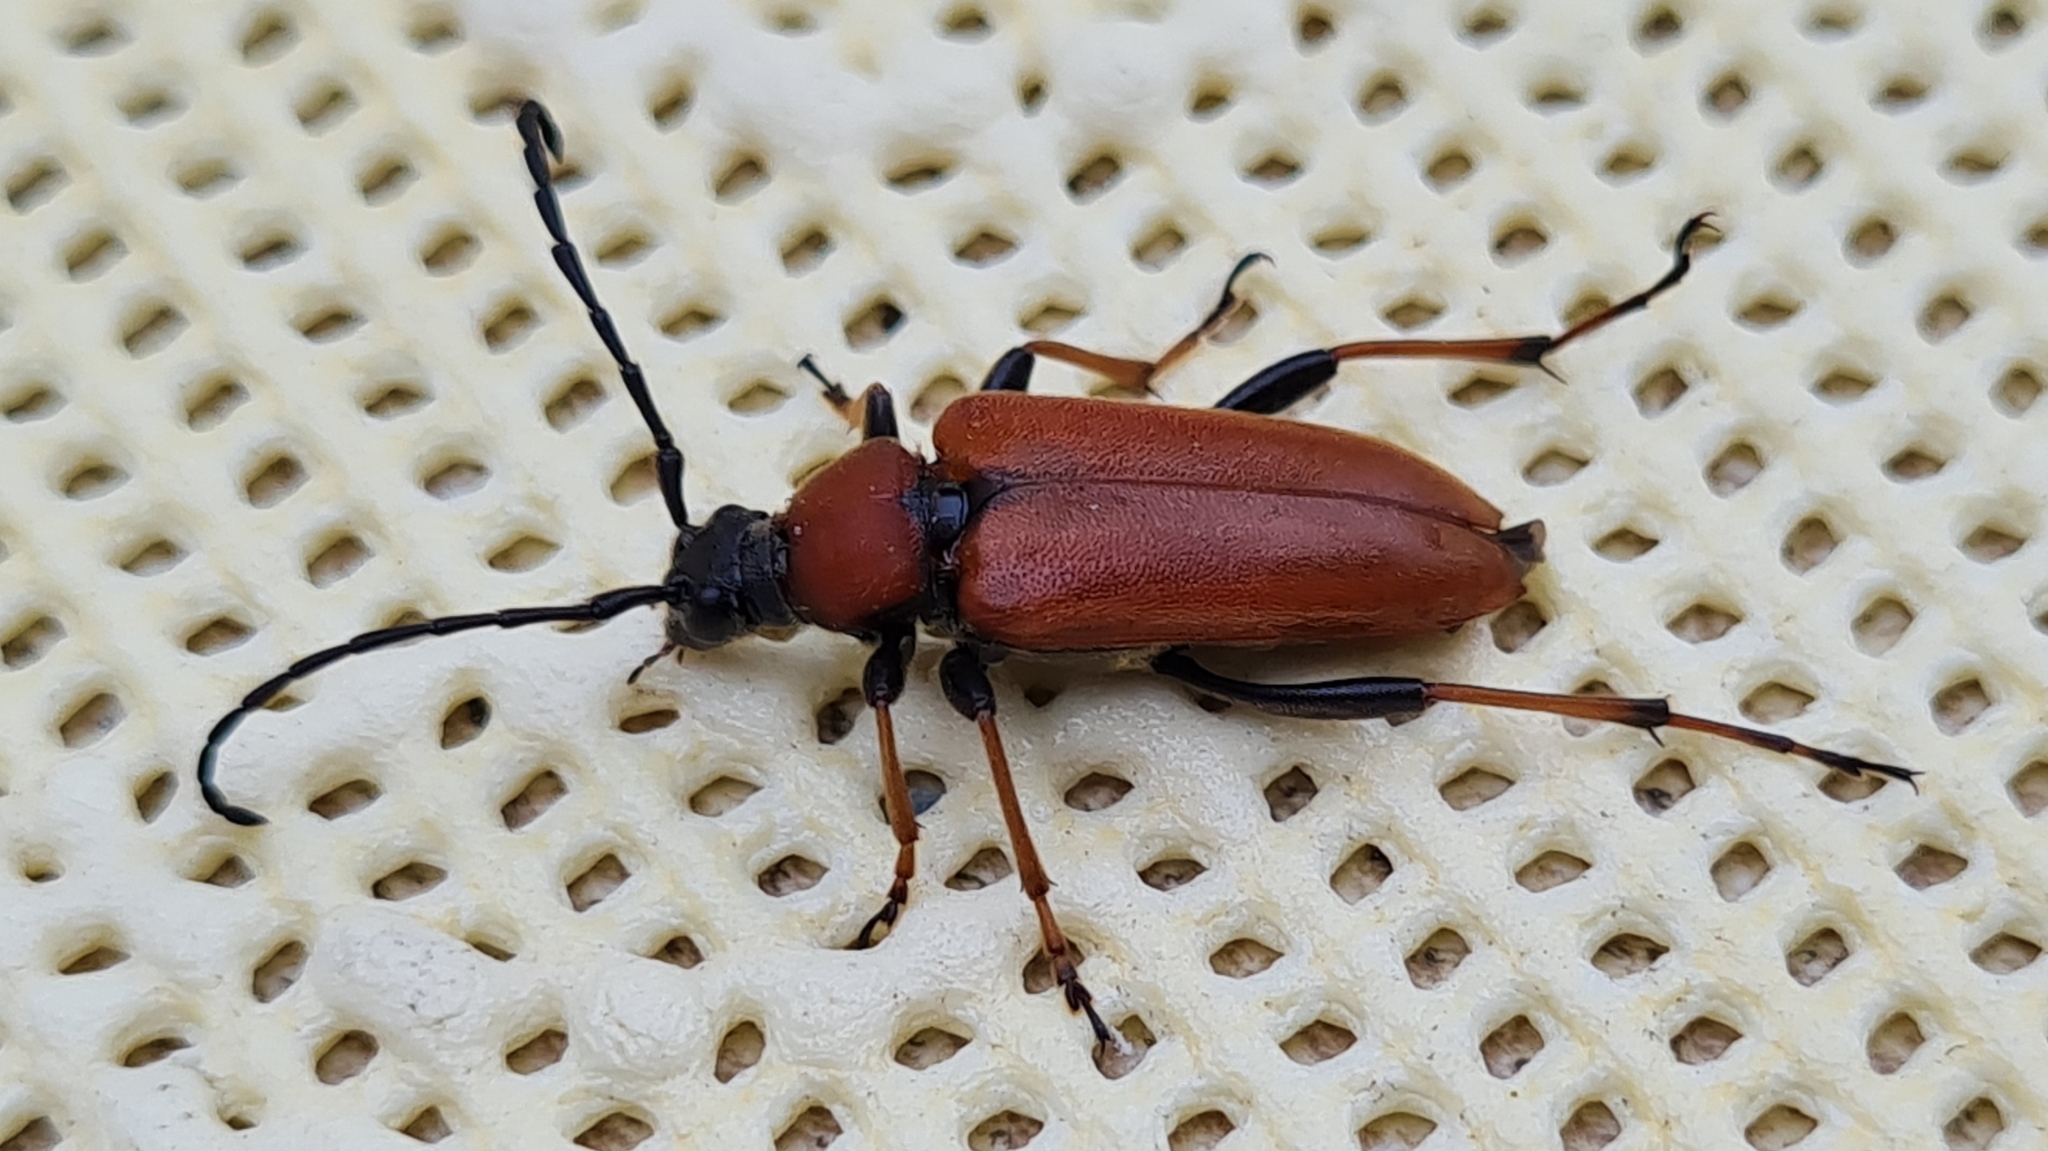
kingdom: Animalia
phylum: Arthropoda
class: Insecta
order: Coleoptera
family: Cerambycidae
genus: Stictoleptura
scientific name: Stictoleptura rubra
